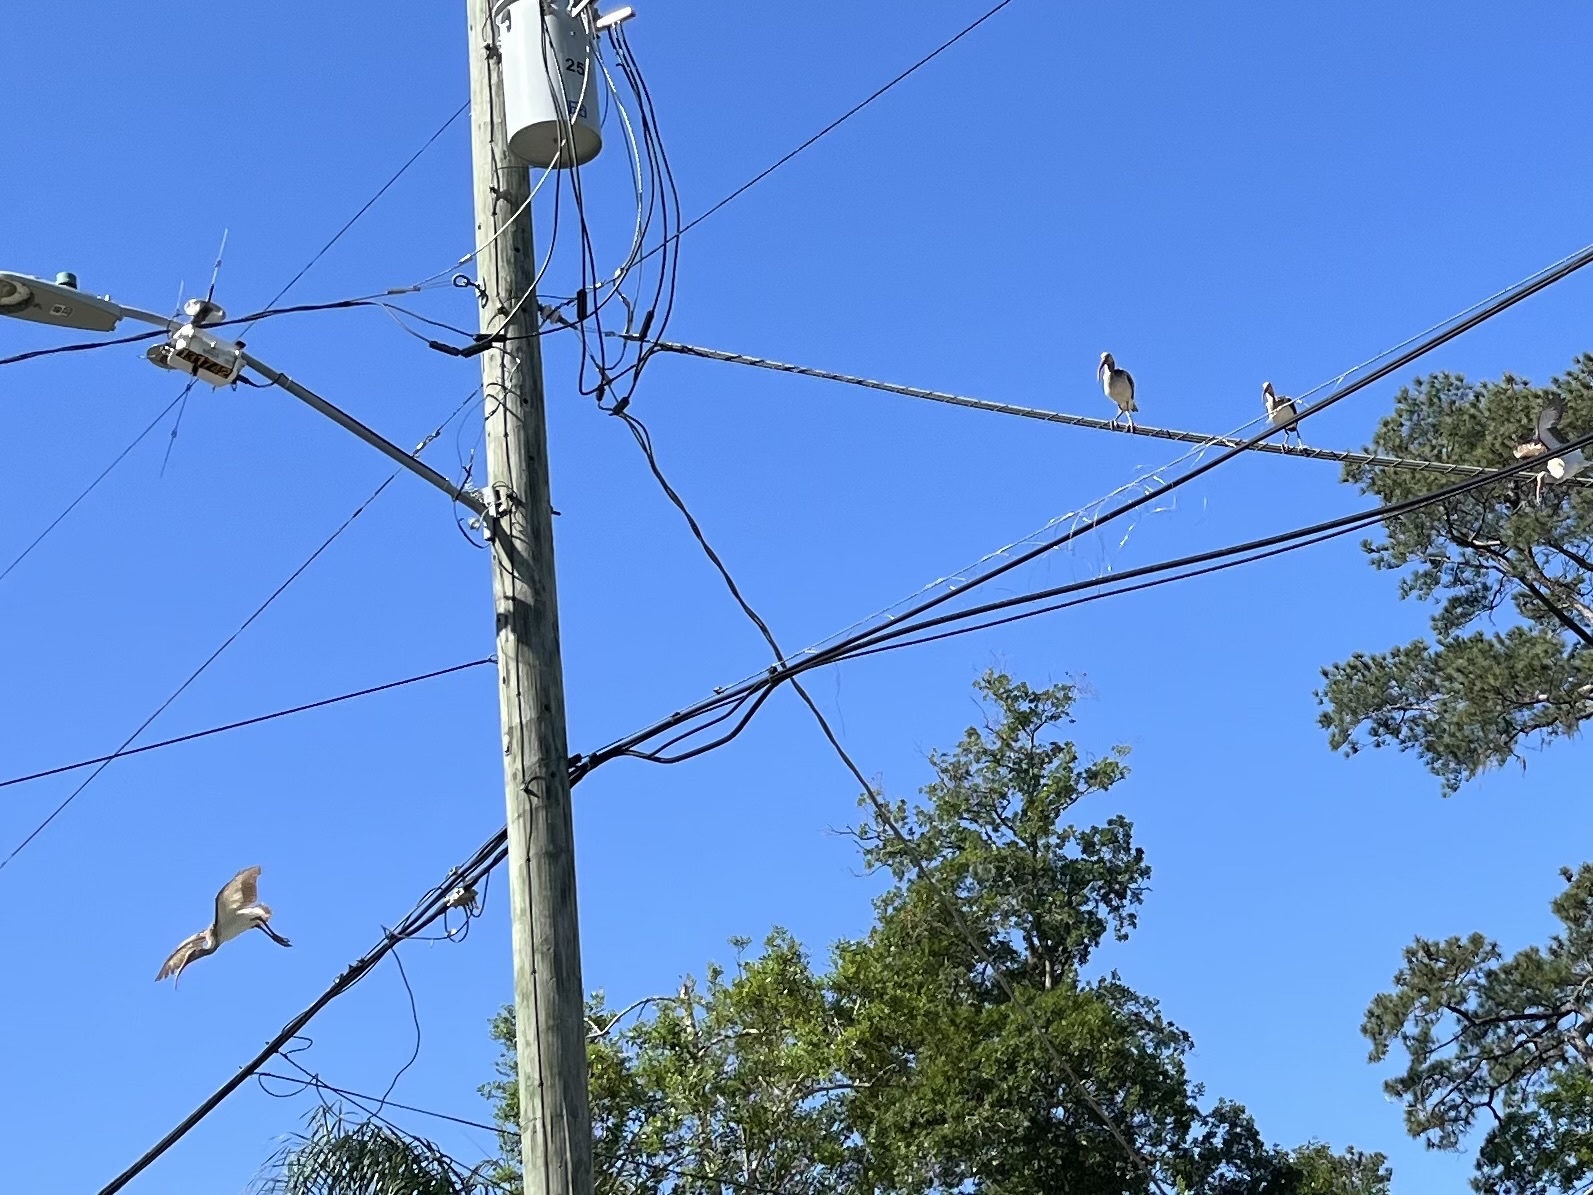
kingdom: Animalia
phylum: Chordata
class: Aves
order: Pelecaniformes
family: Threskiornithidae
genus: Eudocimus
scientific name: Eudocimus albus
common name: White ibis
